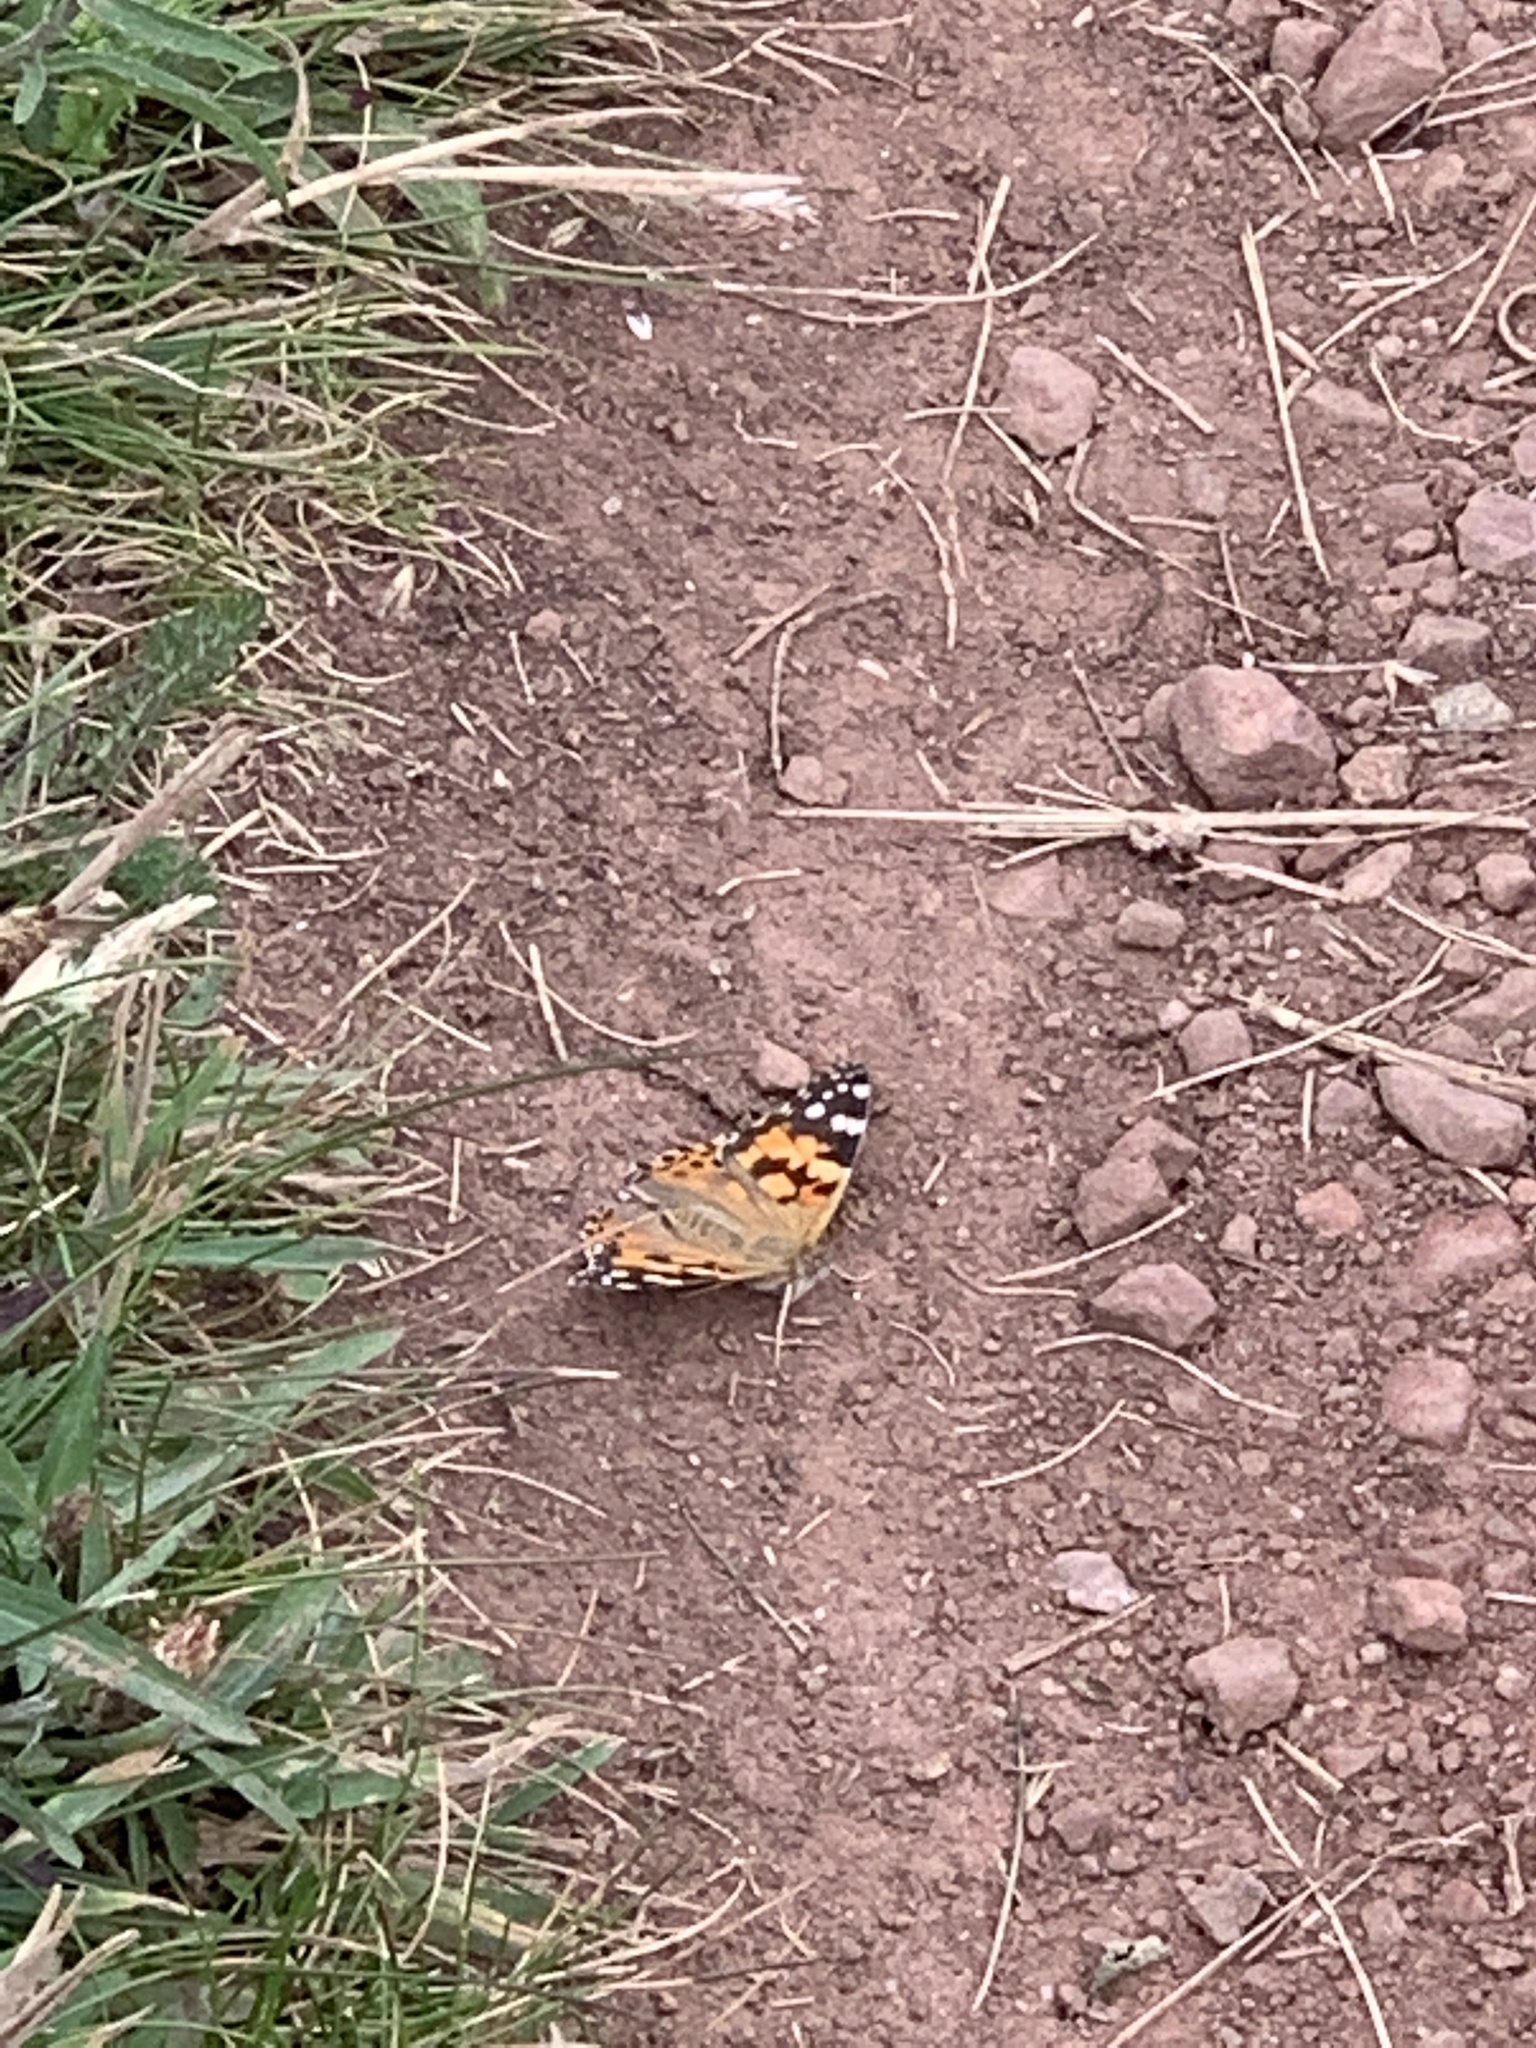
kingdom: Animalia
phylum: Arthropoda
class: Insecta
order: Lepidoptera
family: Nymphalidae
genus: Vanessa
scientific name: Vanessa cardui
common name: Painted lady
